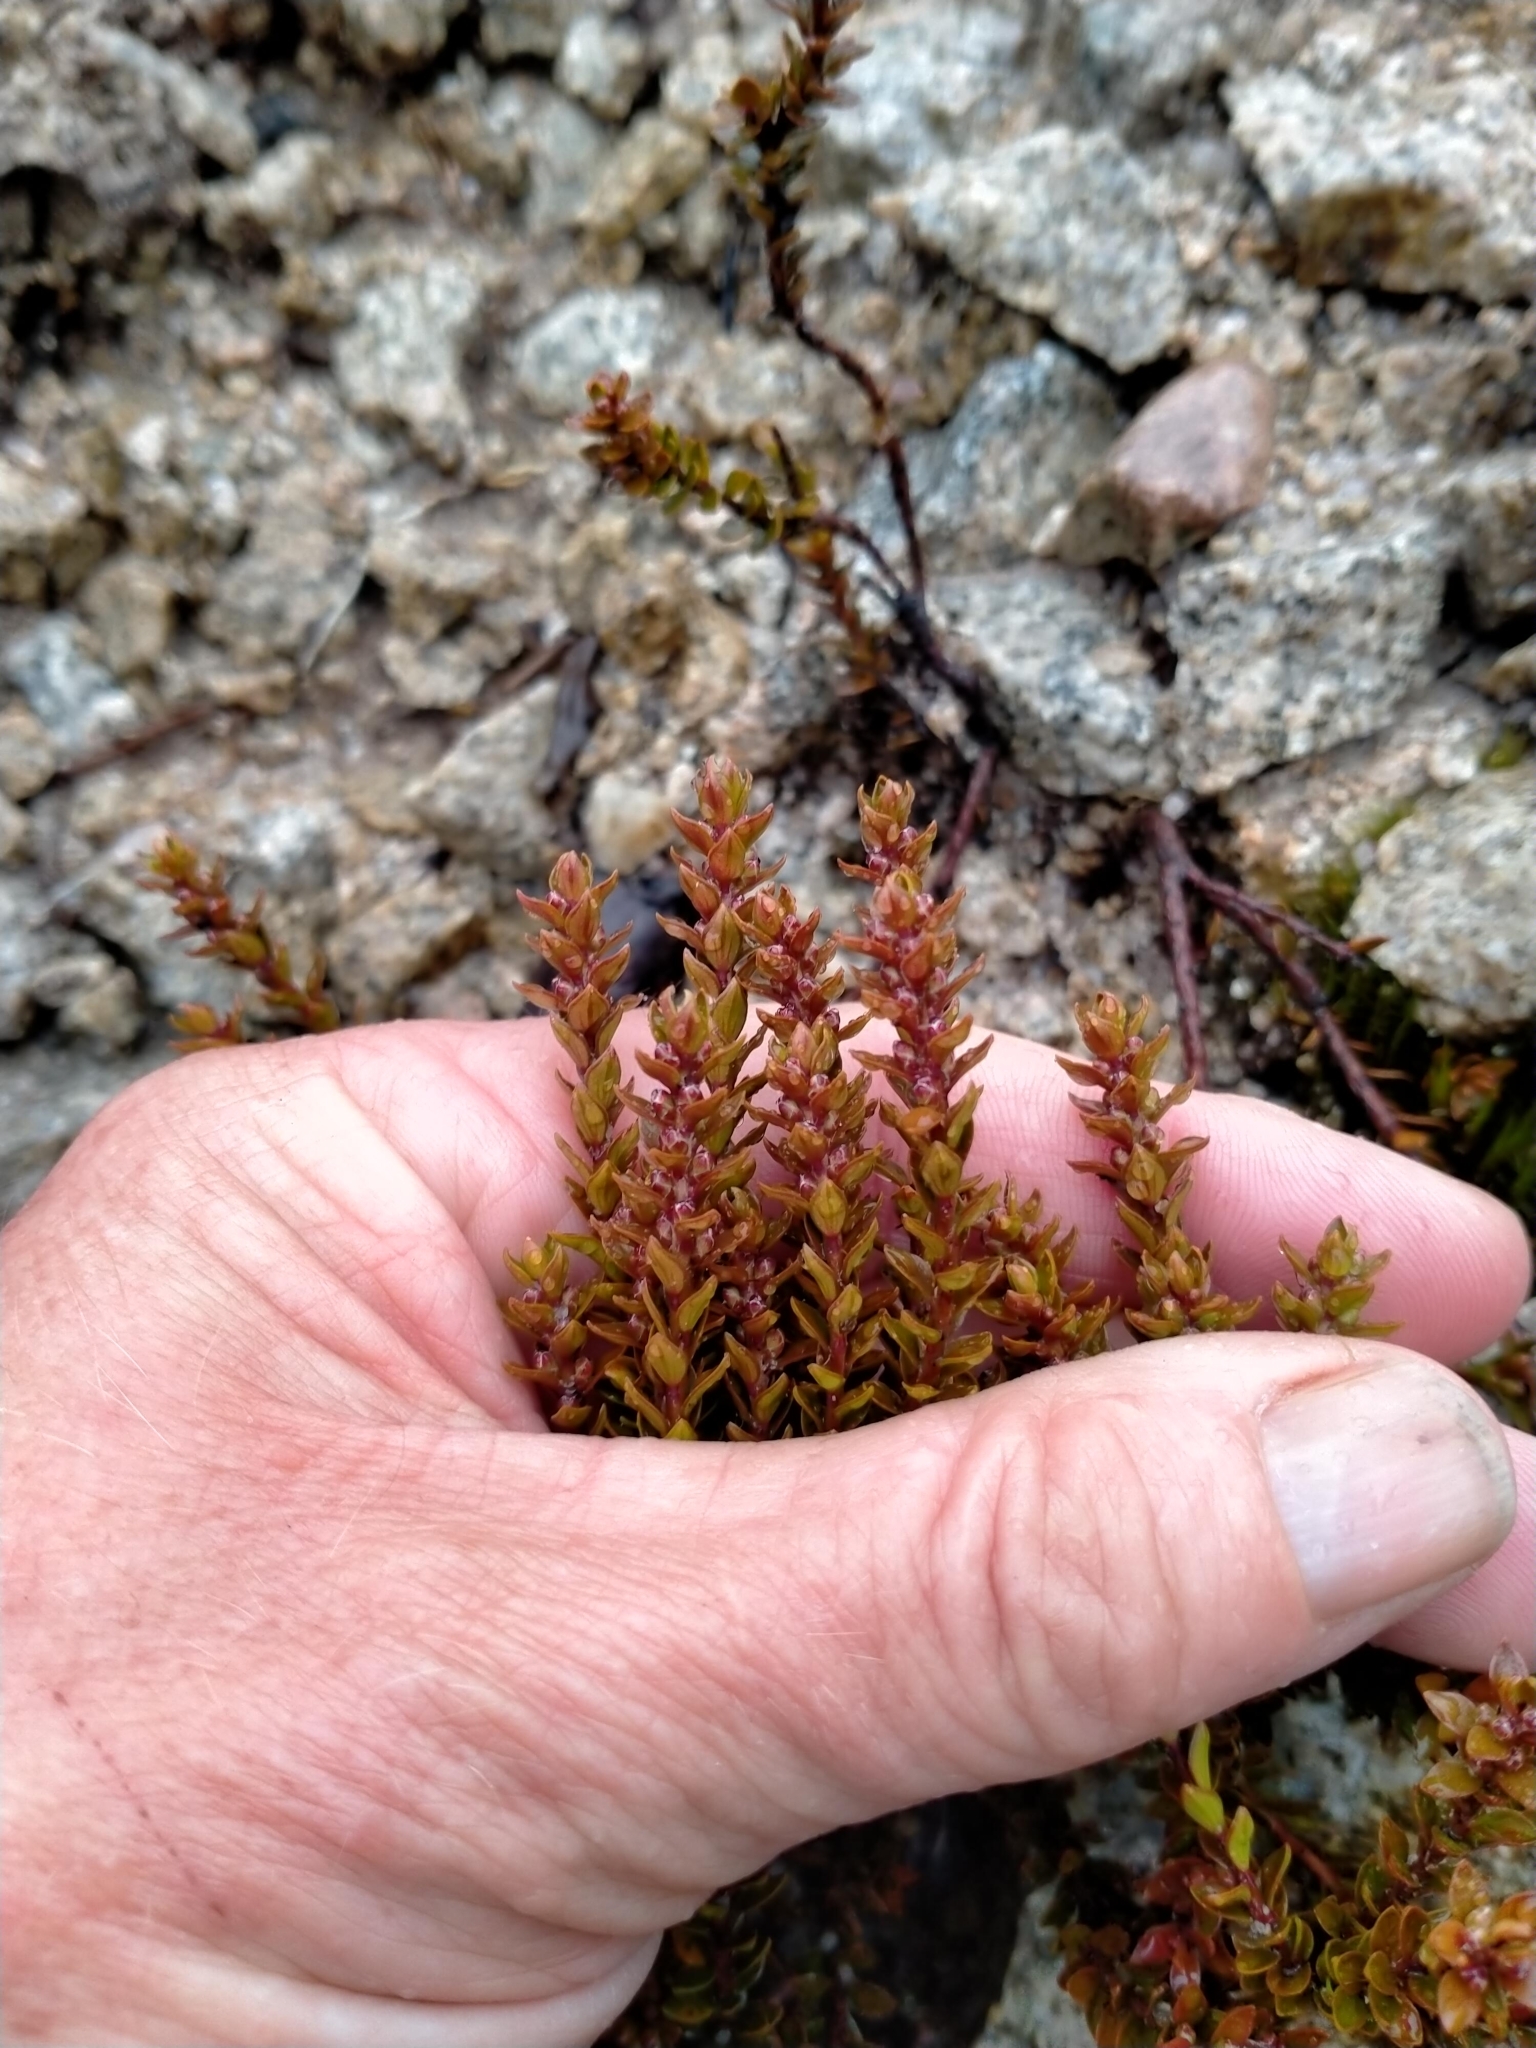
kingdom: Plantae
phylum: Tracheophyta
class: Magnoliopsida
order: Ericales
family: Ericaceae
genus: Epacris
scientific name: Epacris alpina
